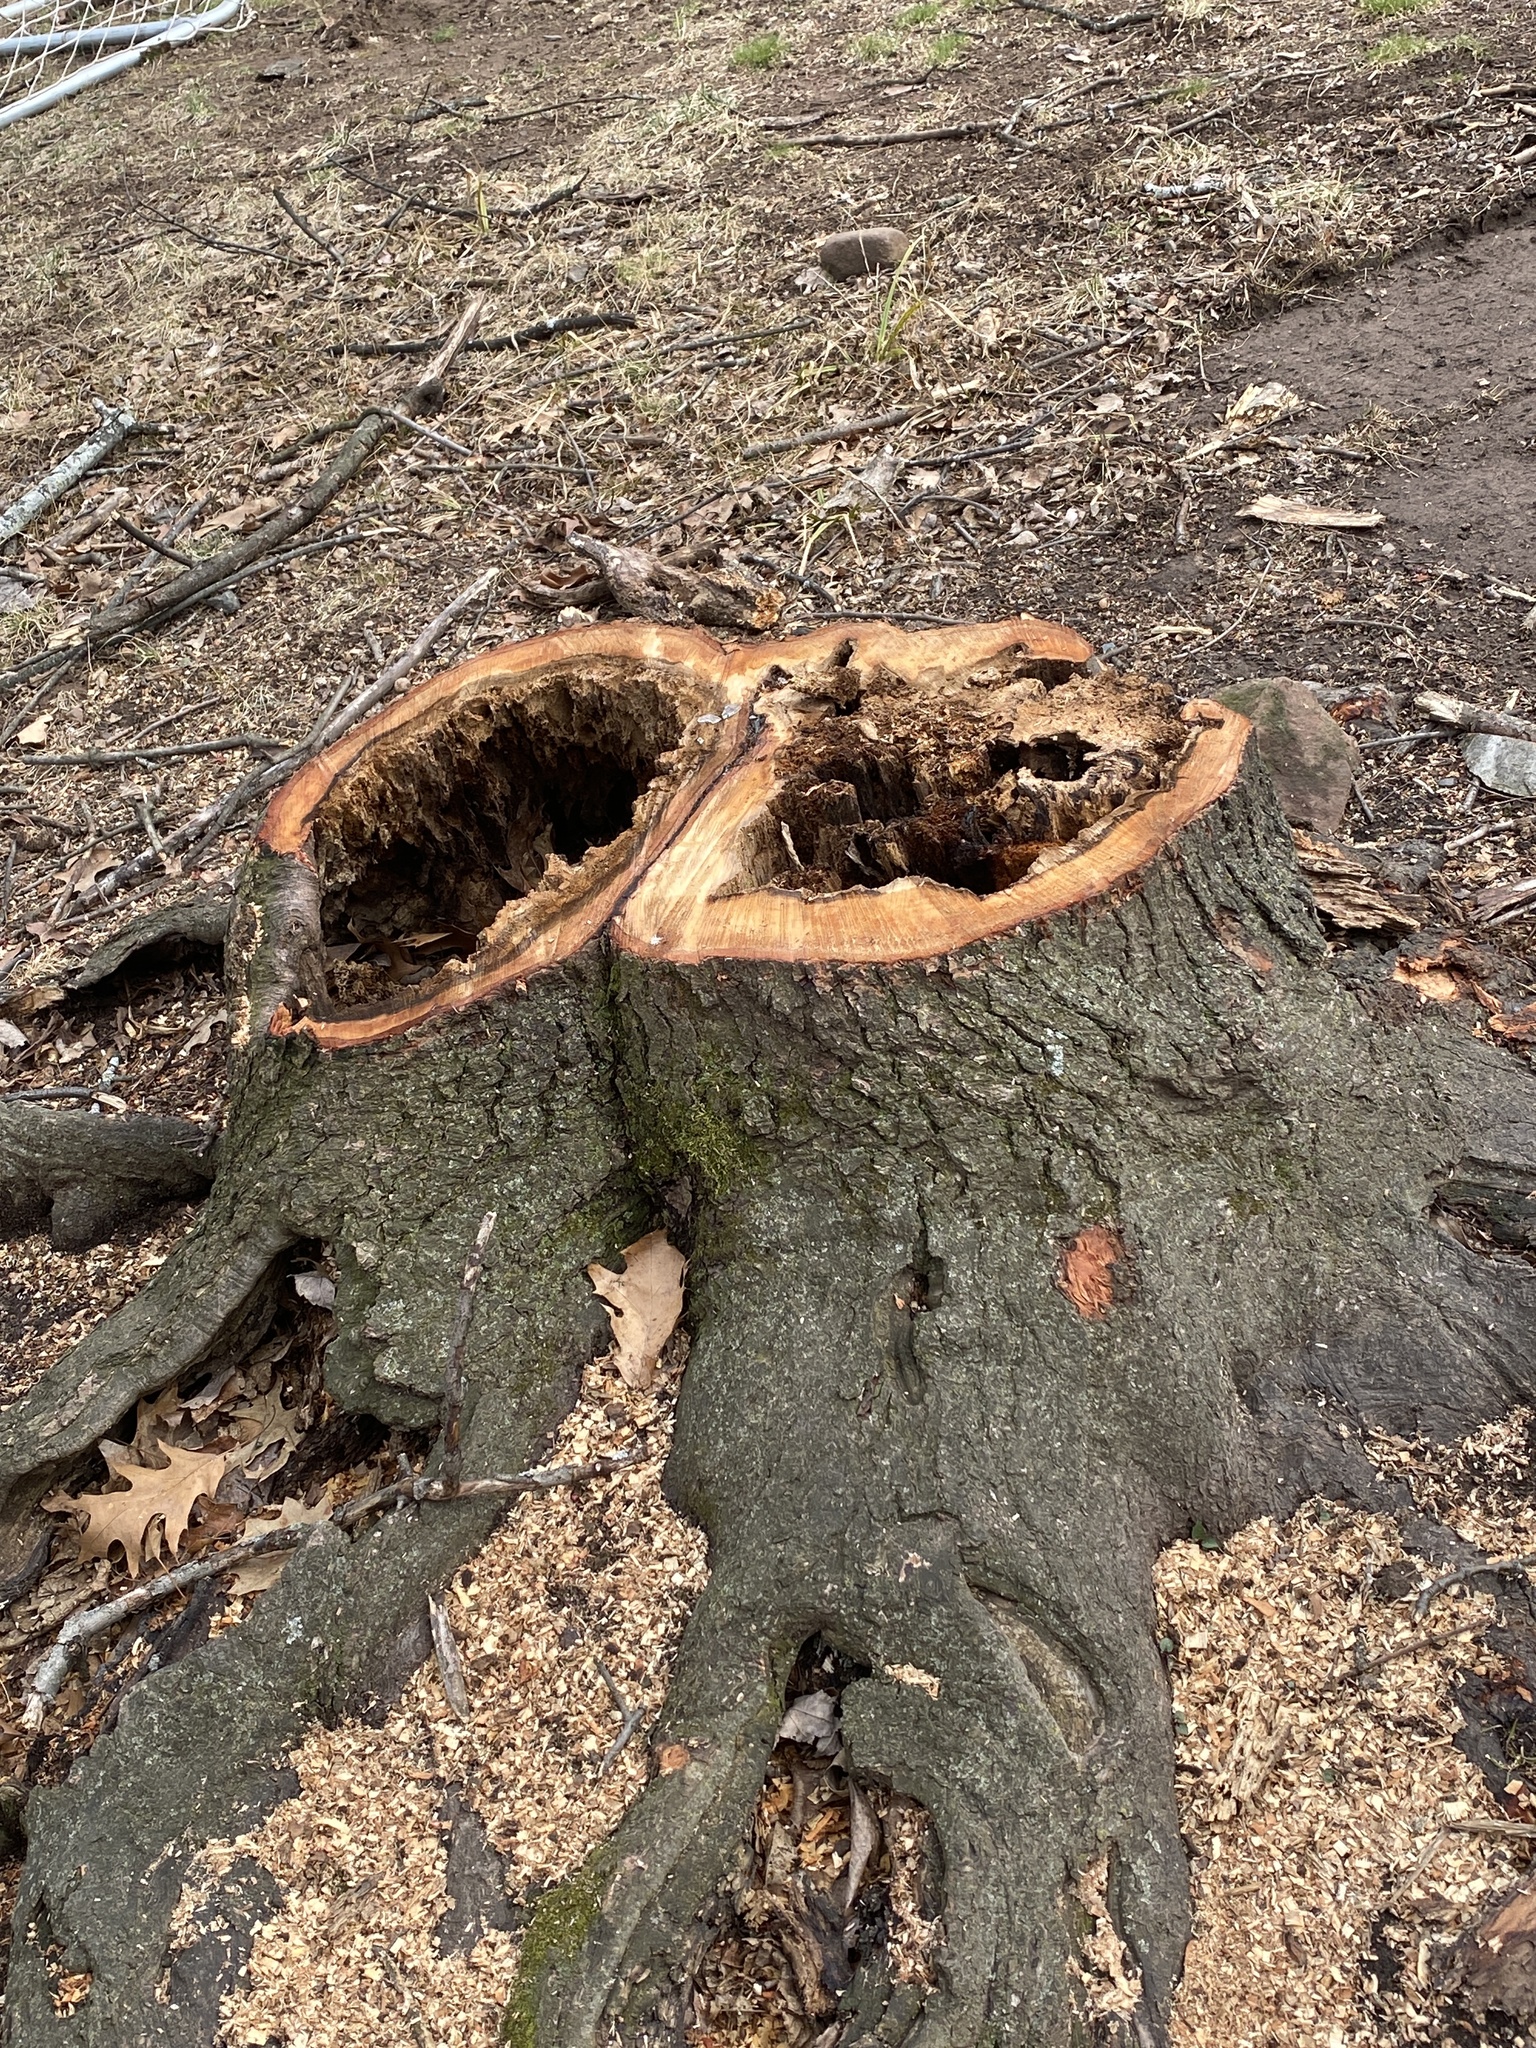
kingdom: Animalia
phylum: Arthropoda
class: Insecta
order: Coleoptera
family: Buprestidae
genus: Agrilus
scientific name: Agrilus planipennis
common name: Emerald ash borer
